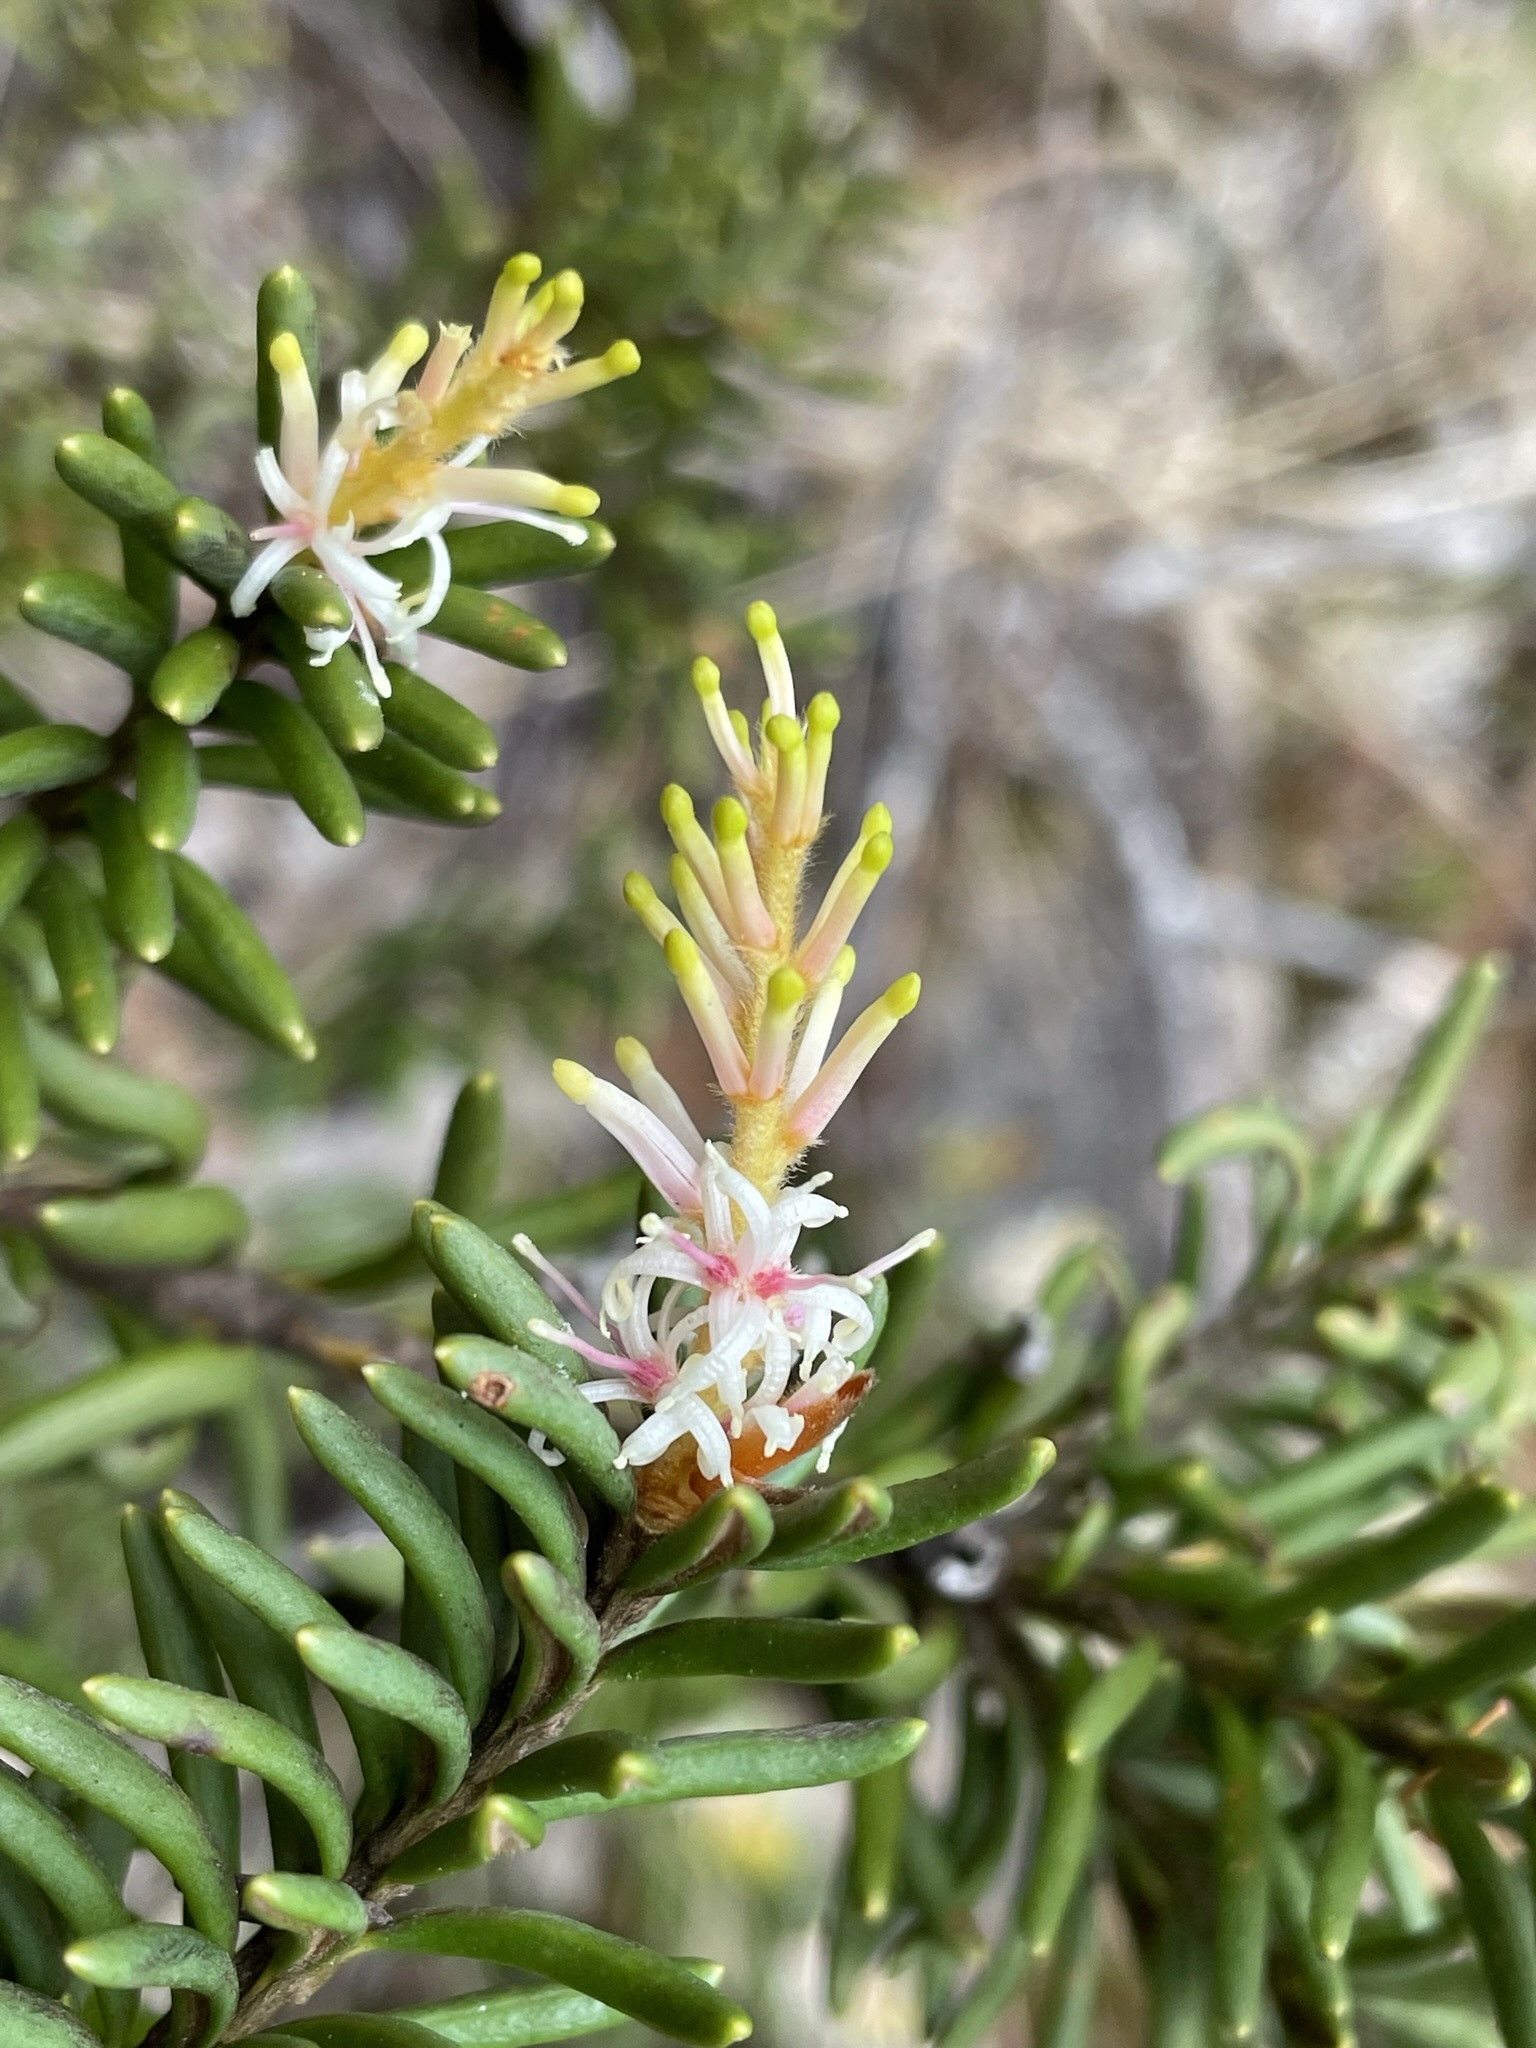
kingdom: Plantae
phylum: Tracheophyta
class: Magnoliopsida
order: Proteales
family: Proteaceae
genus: Orites
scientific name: Orites revolutus
